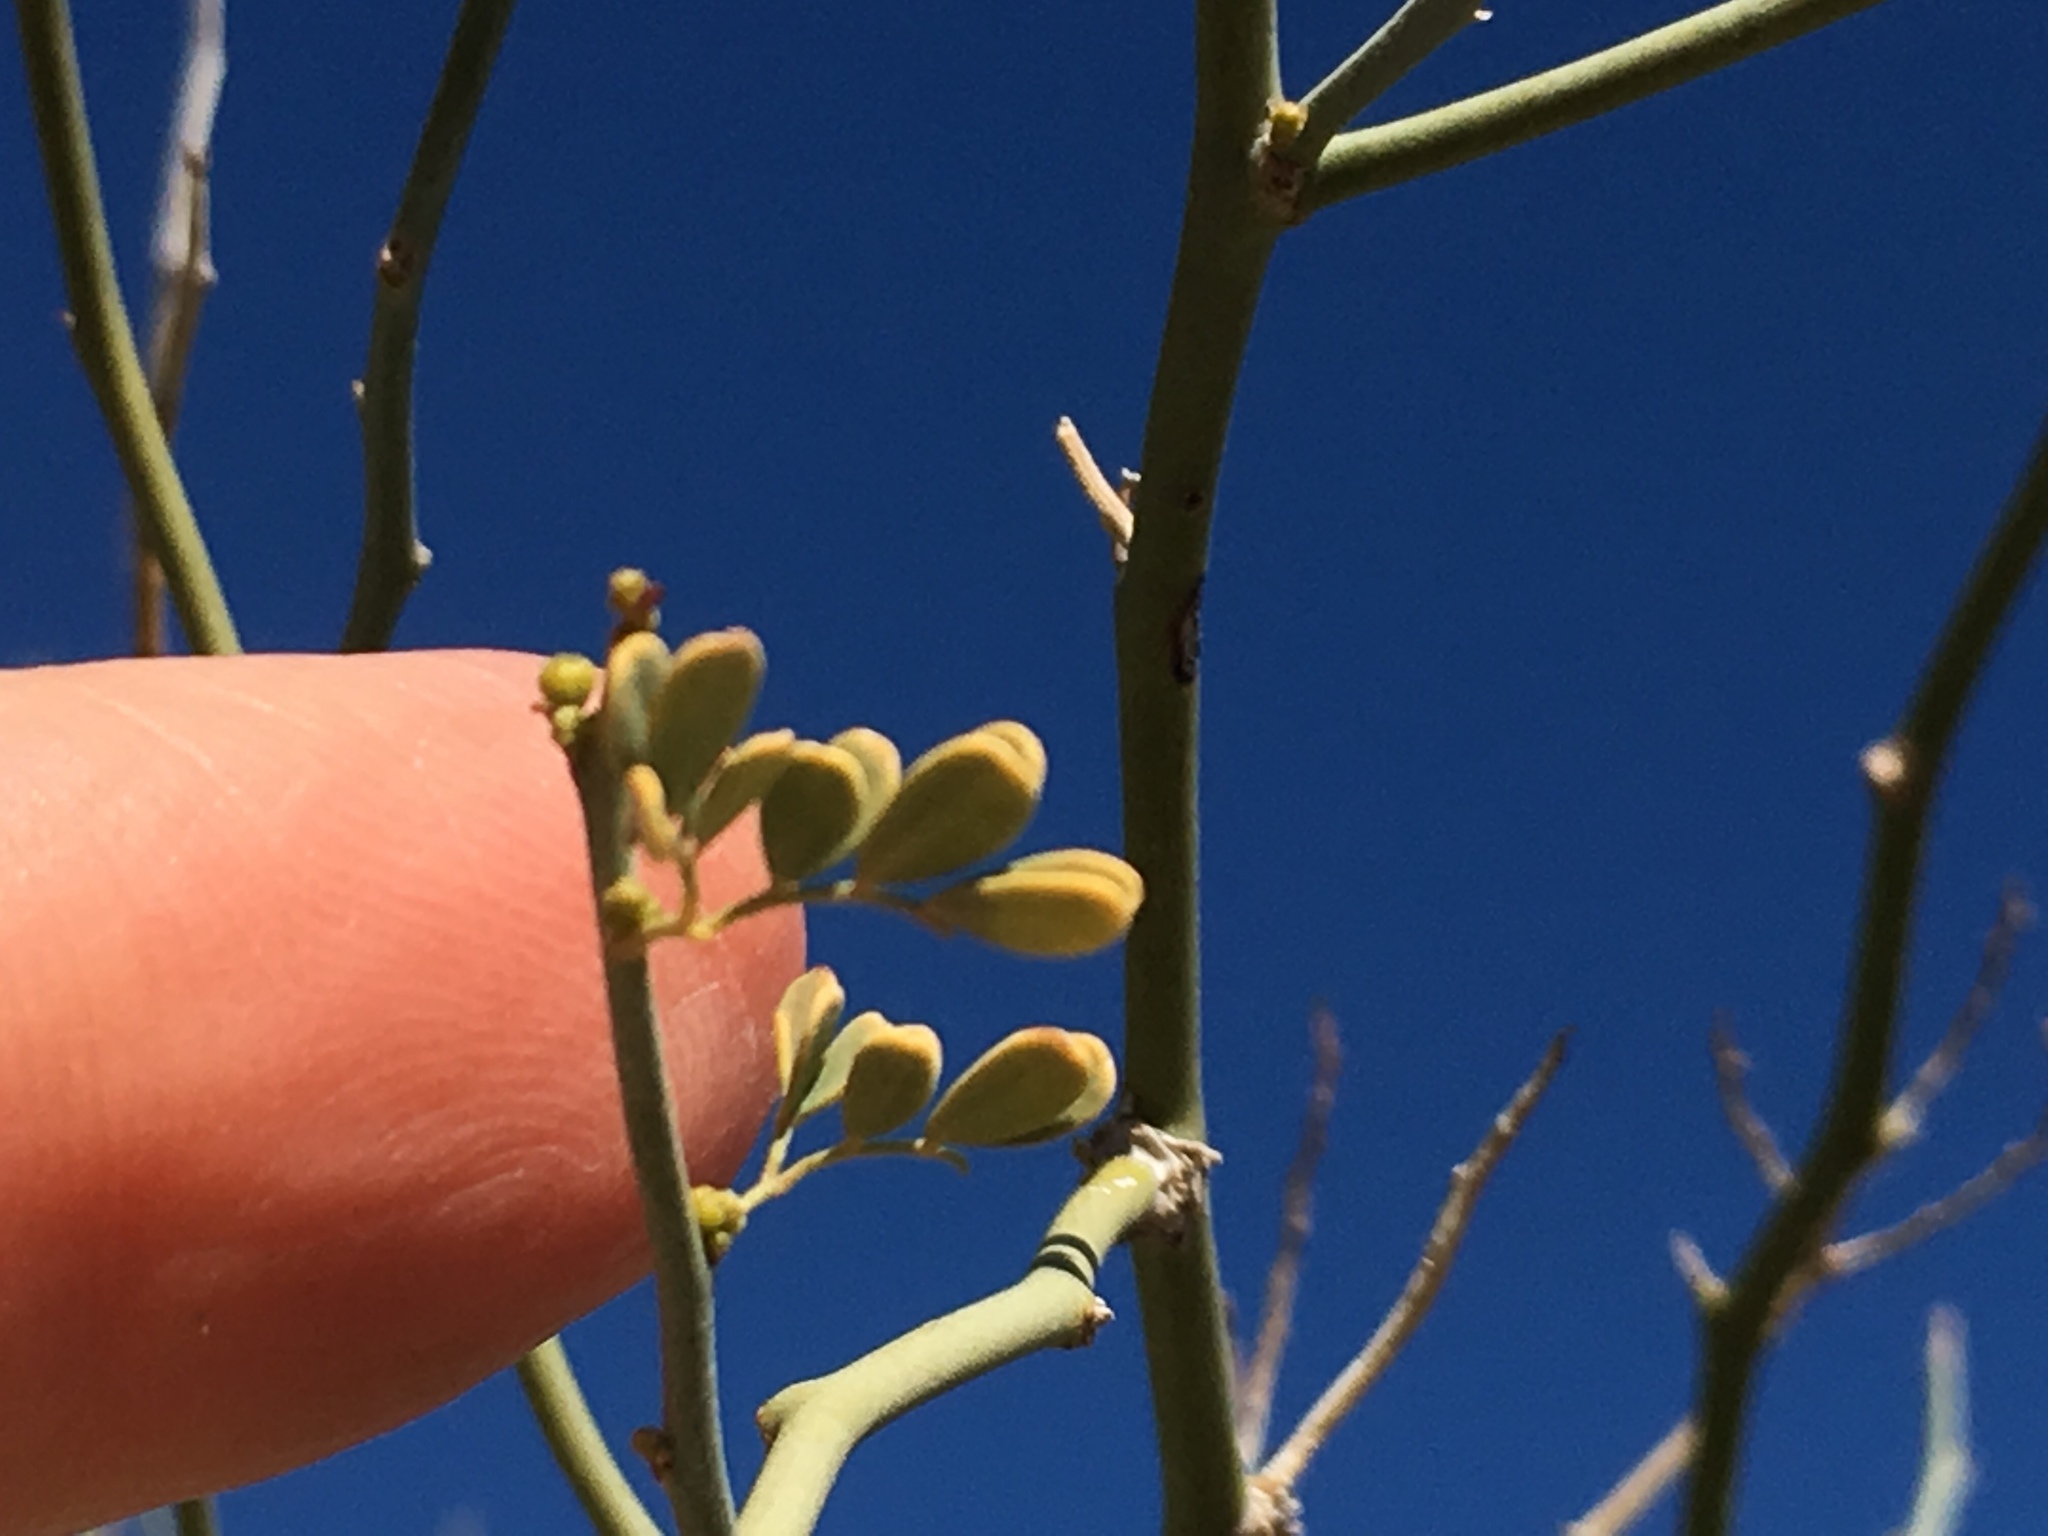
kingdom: Plantae
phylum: Tracheophyta
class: Magnoliopsida
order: Fabales
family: Fabaceae
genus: Parkinsonia
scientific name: Parkinsonia florida
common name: Blue paloverde
